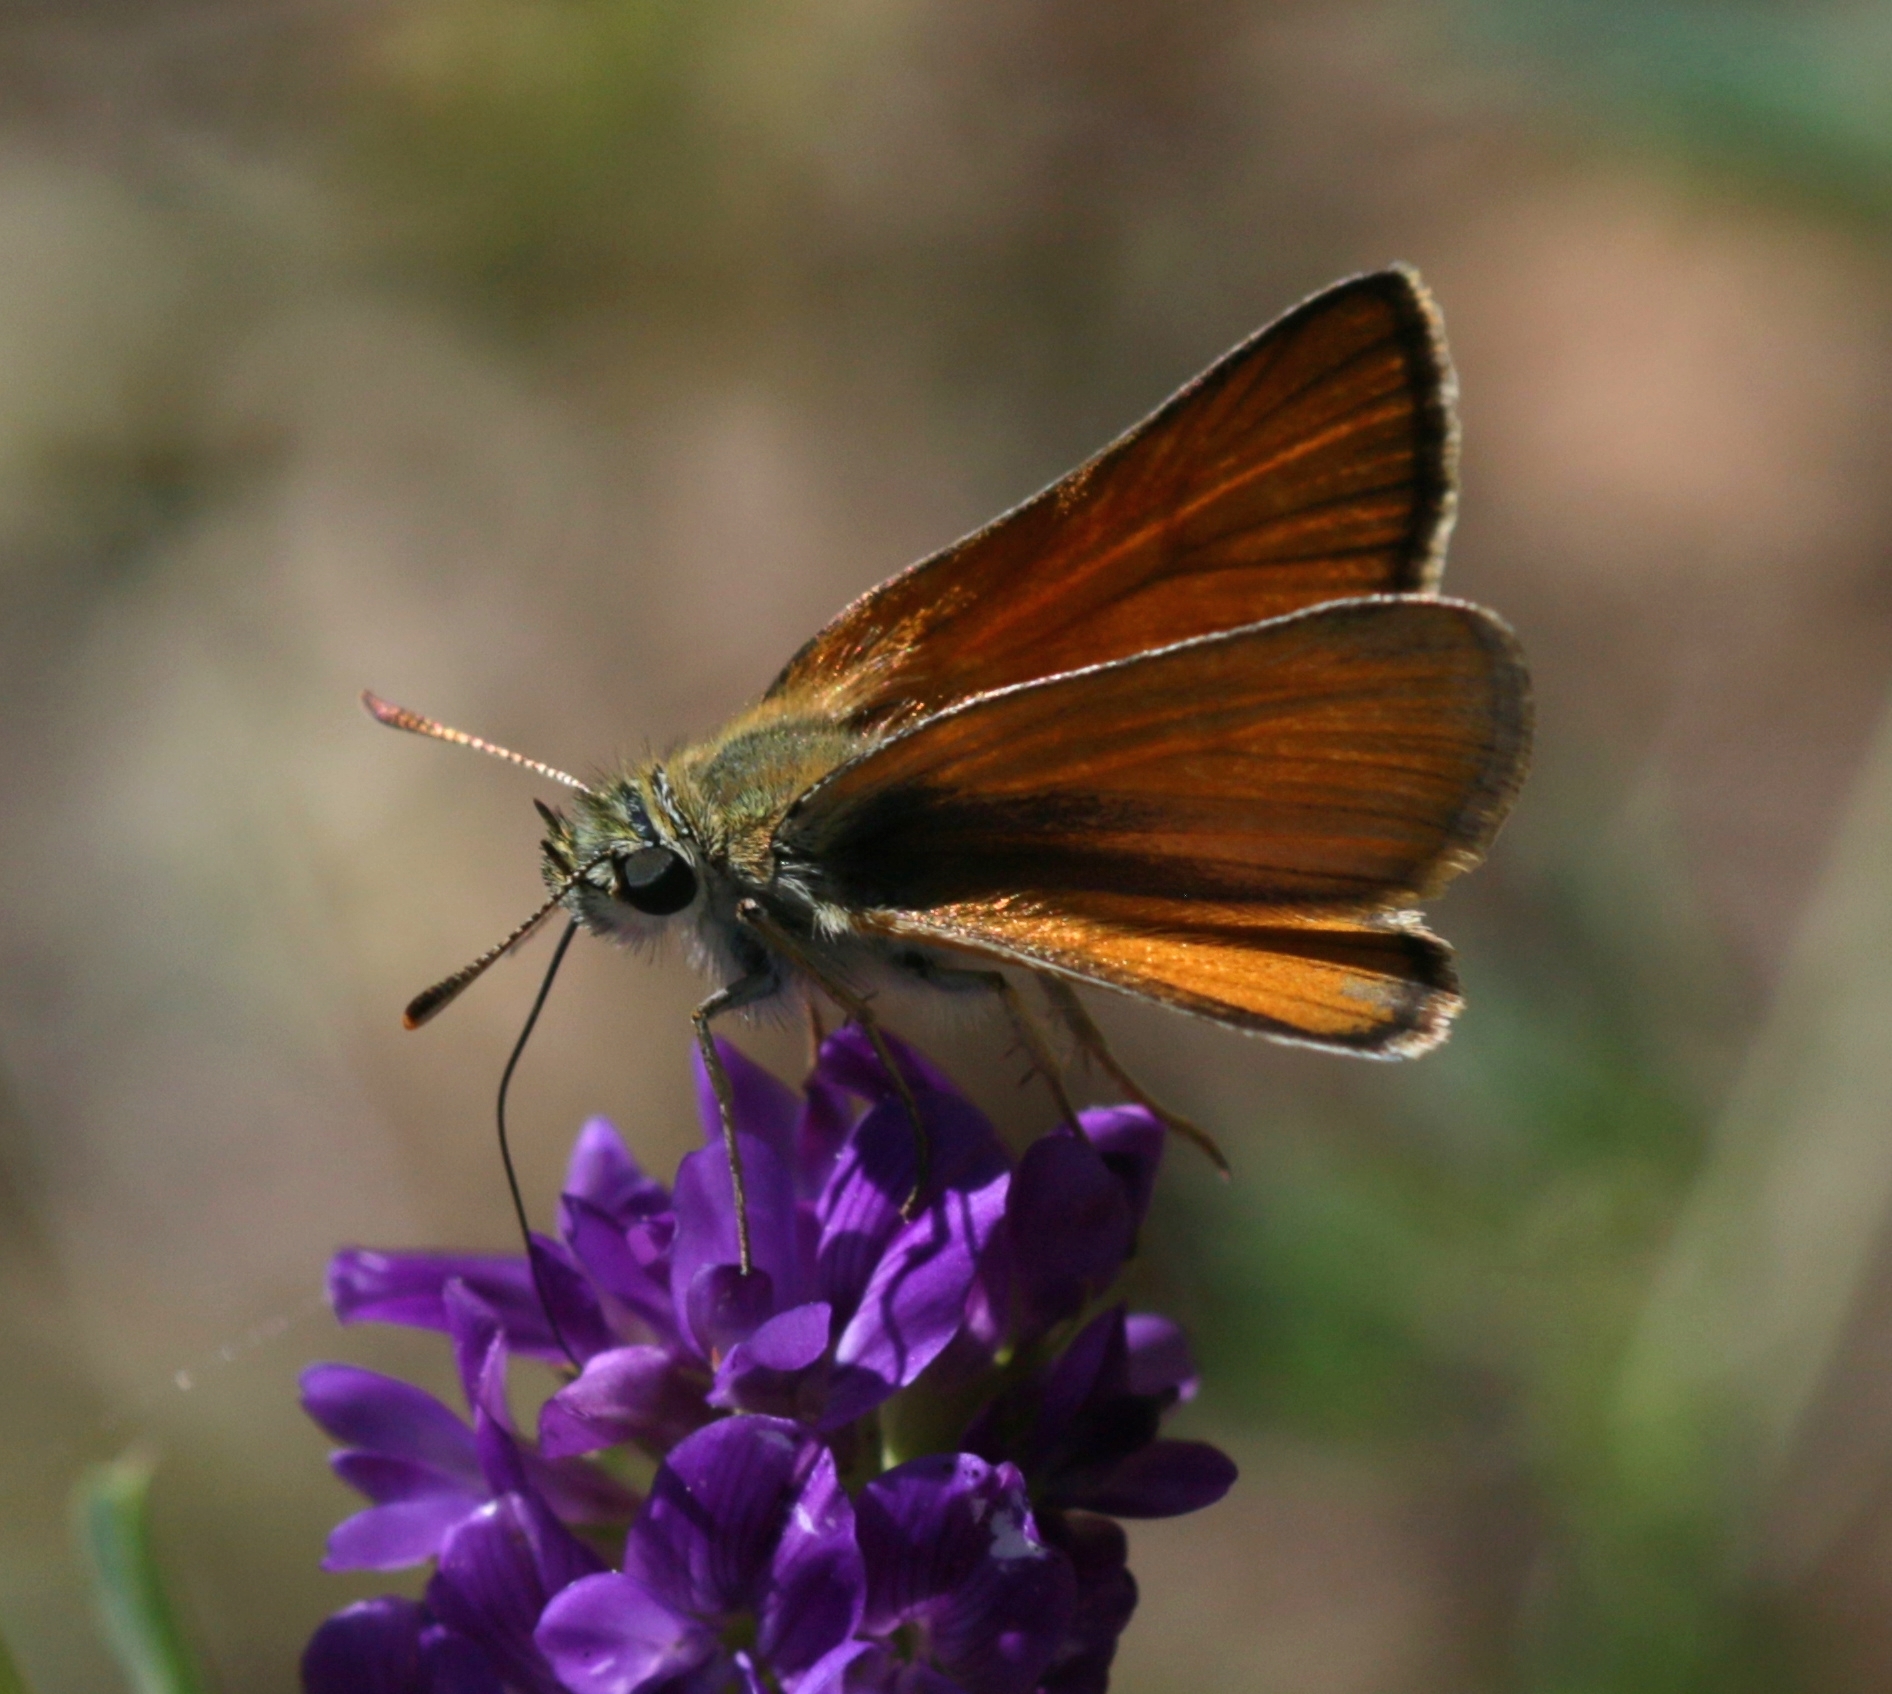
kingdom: Animalia
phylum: Arthropoda
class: Insecta
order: Lepidoptera
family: Hesperiidae
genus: Thymelicus
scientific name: Thymelicus sylvestris
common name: Small skipper
